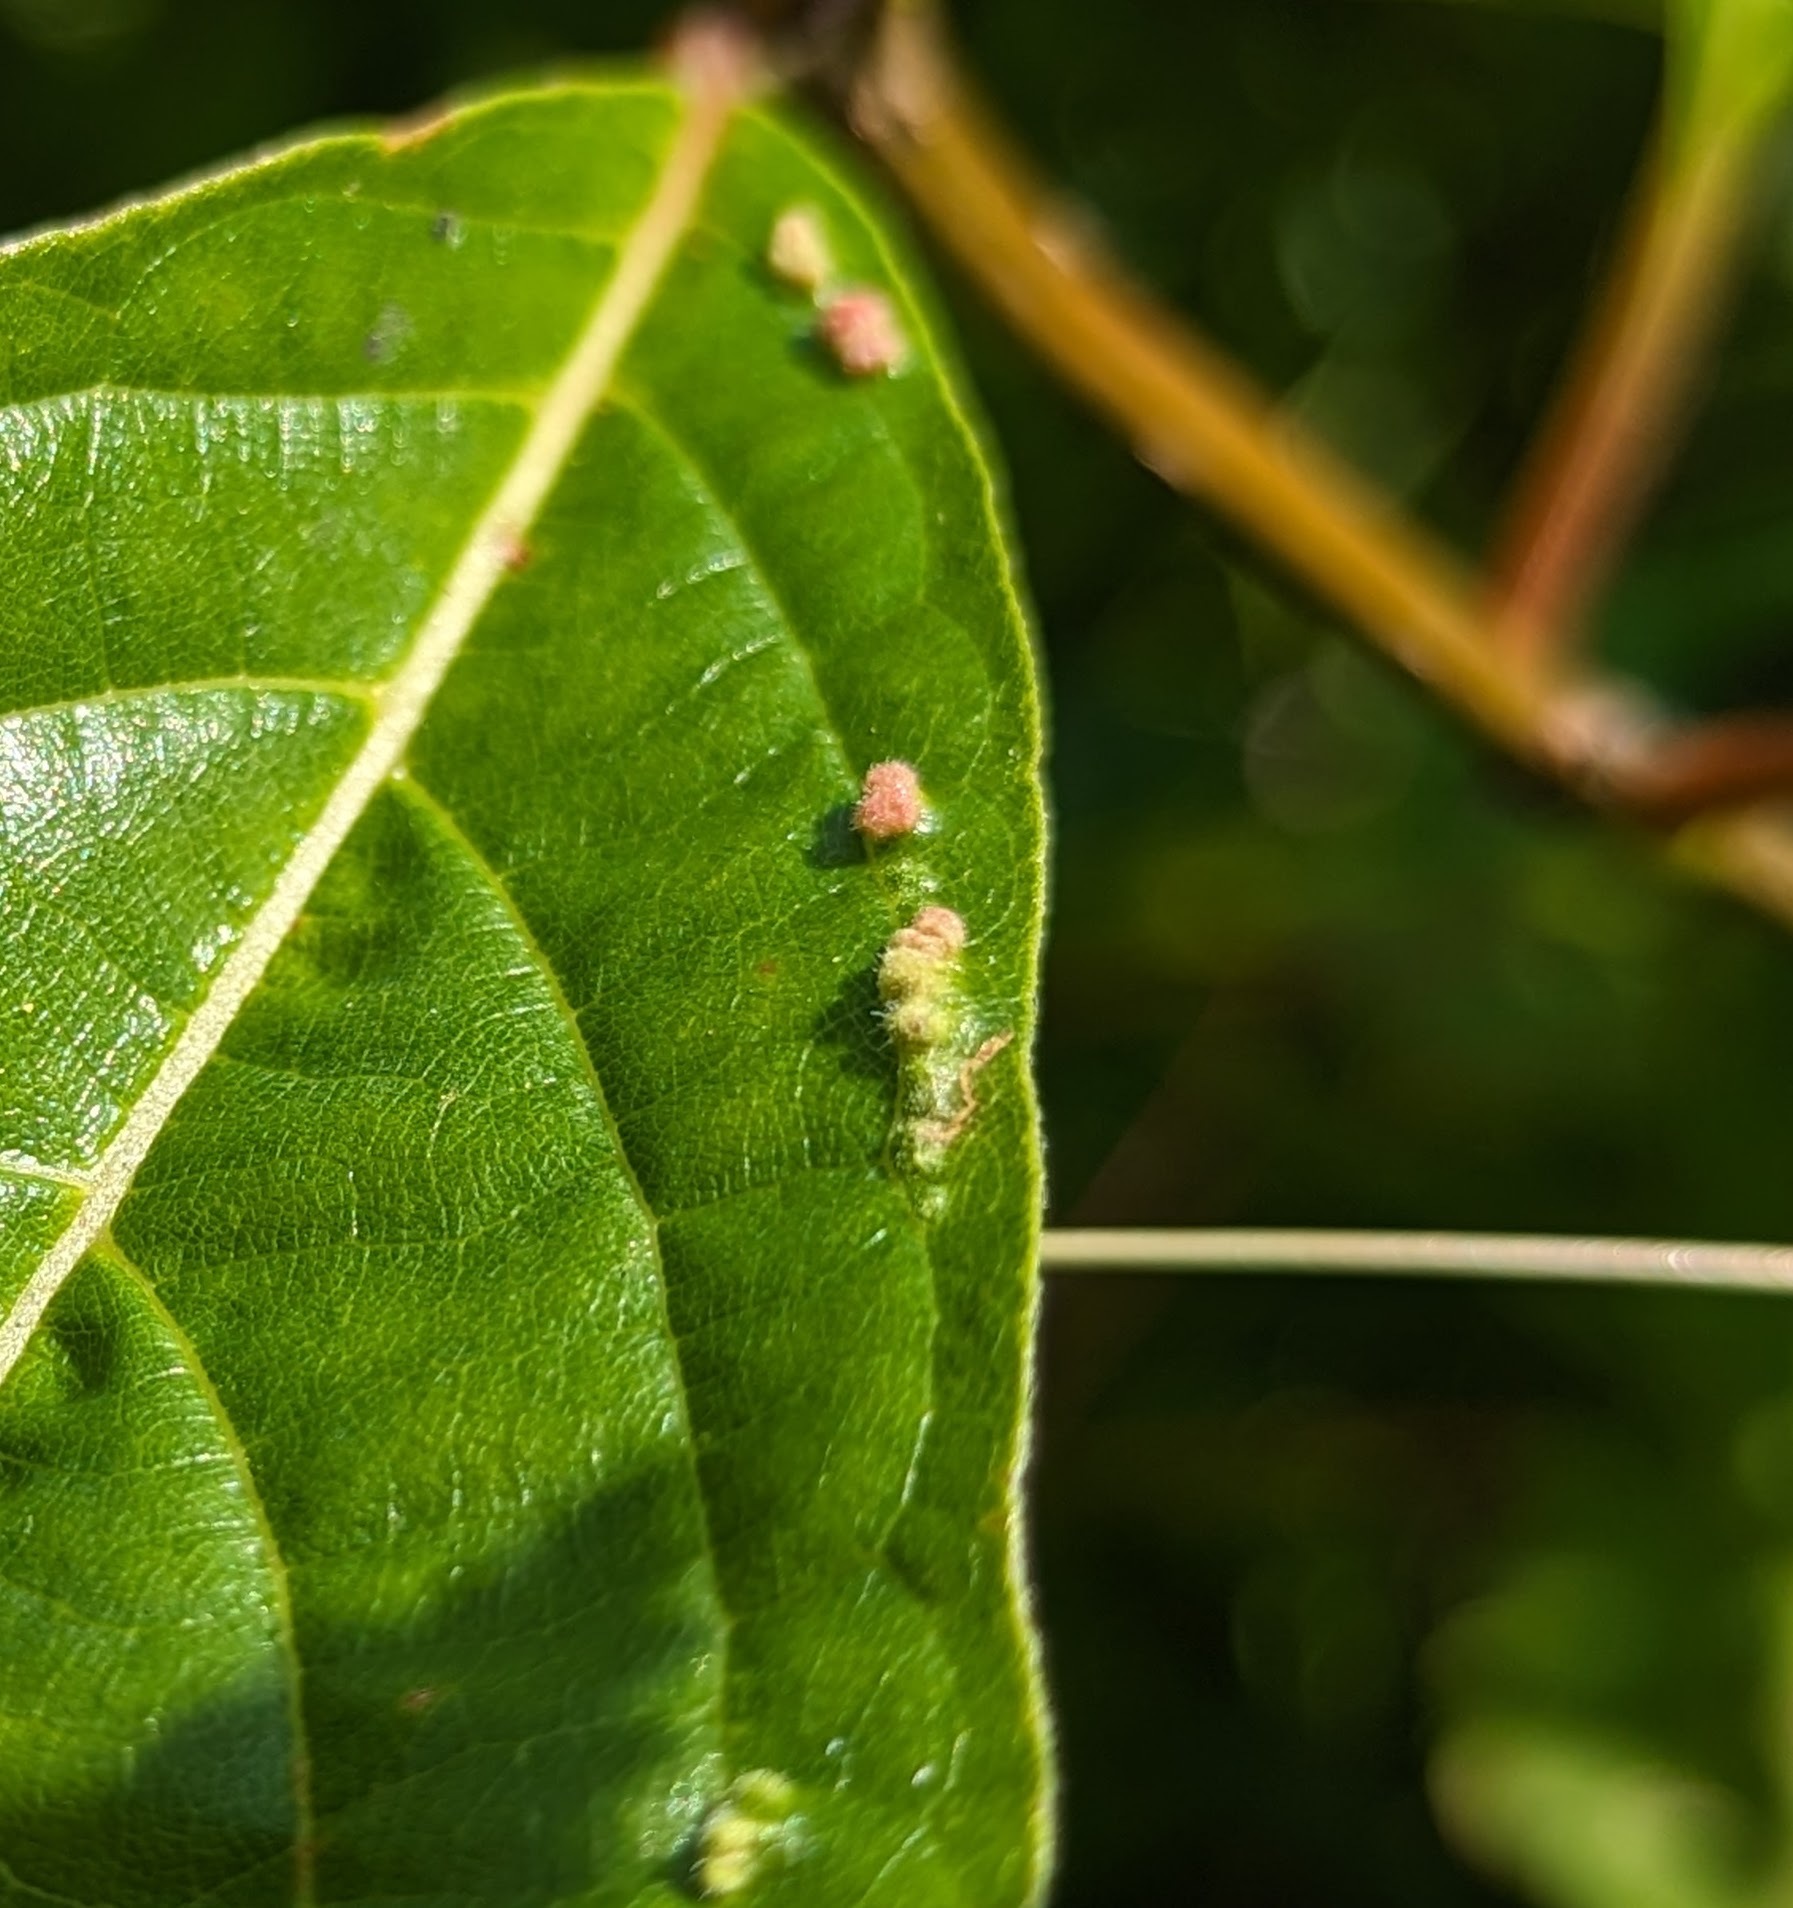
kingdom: Animalia
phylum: Arthropoda
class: Arachnida
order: Trombidiformes
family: Eriophyidae
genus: Aceria
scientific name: Aceria
